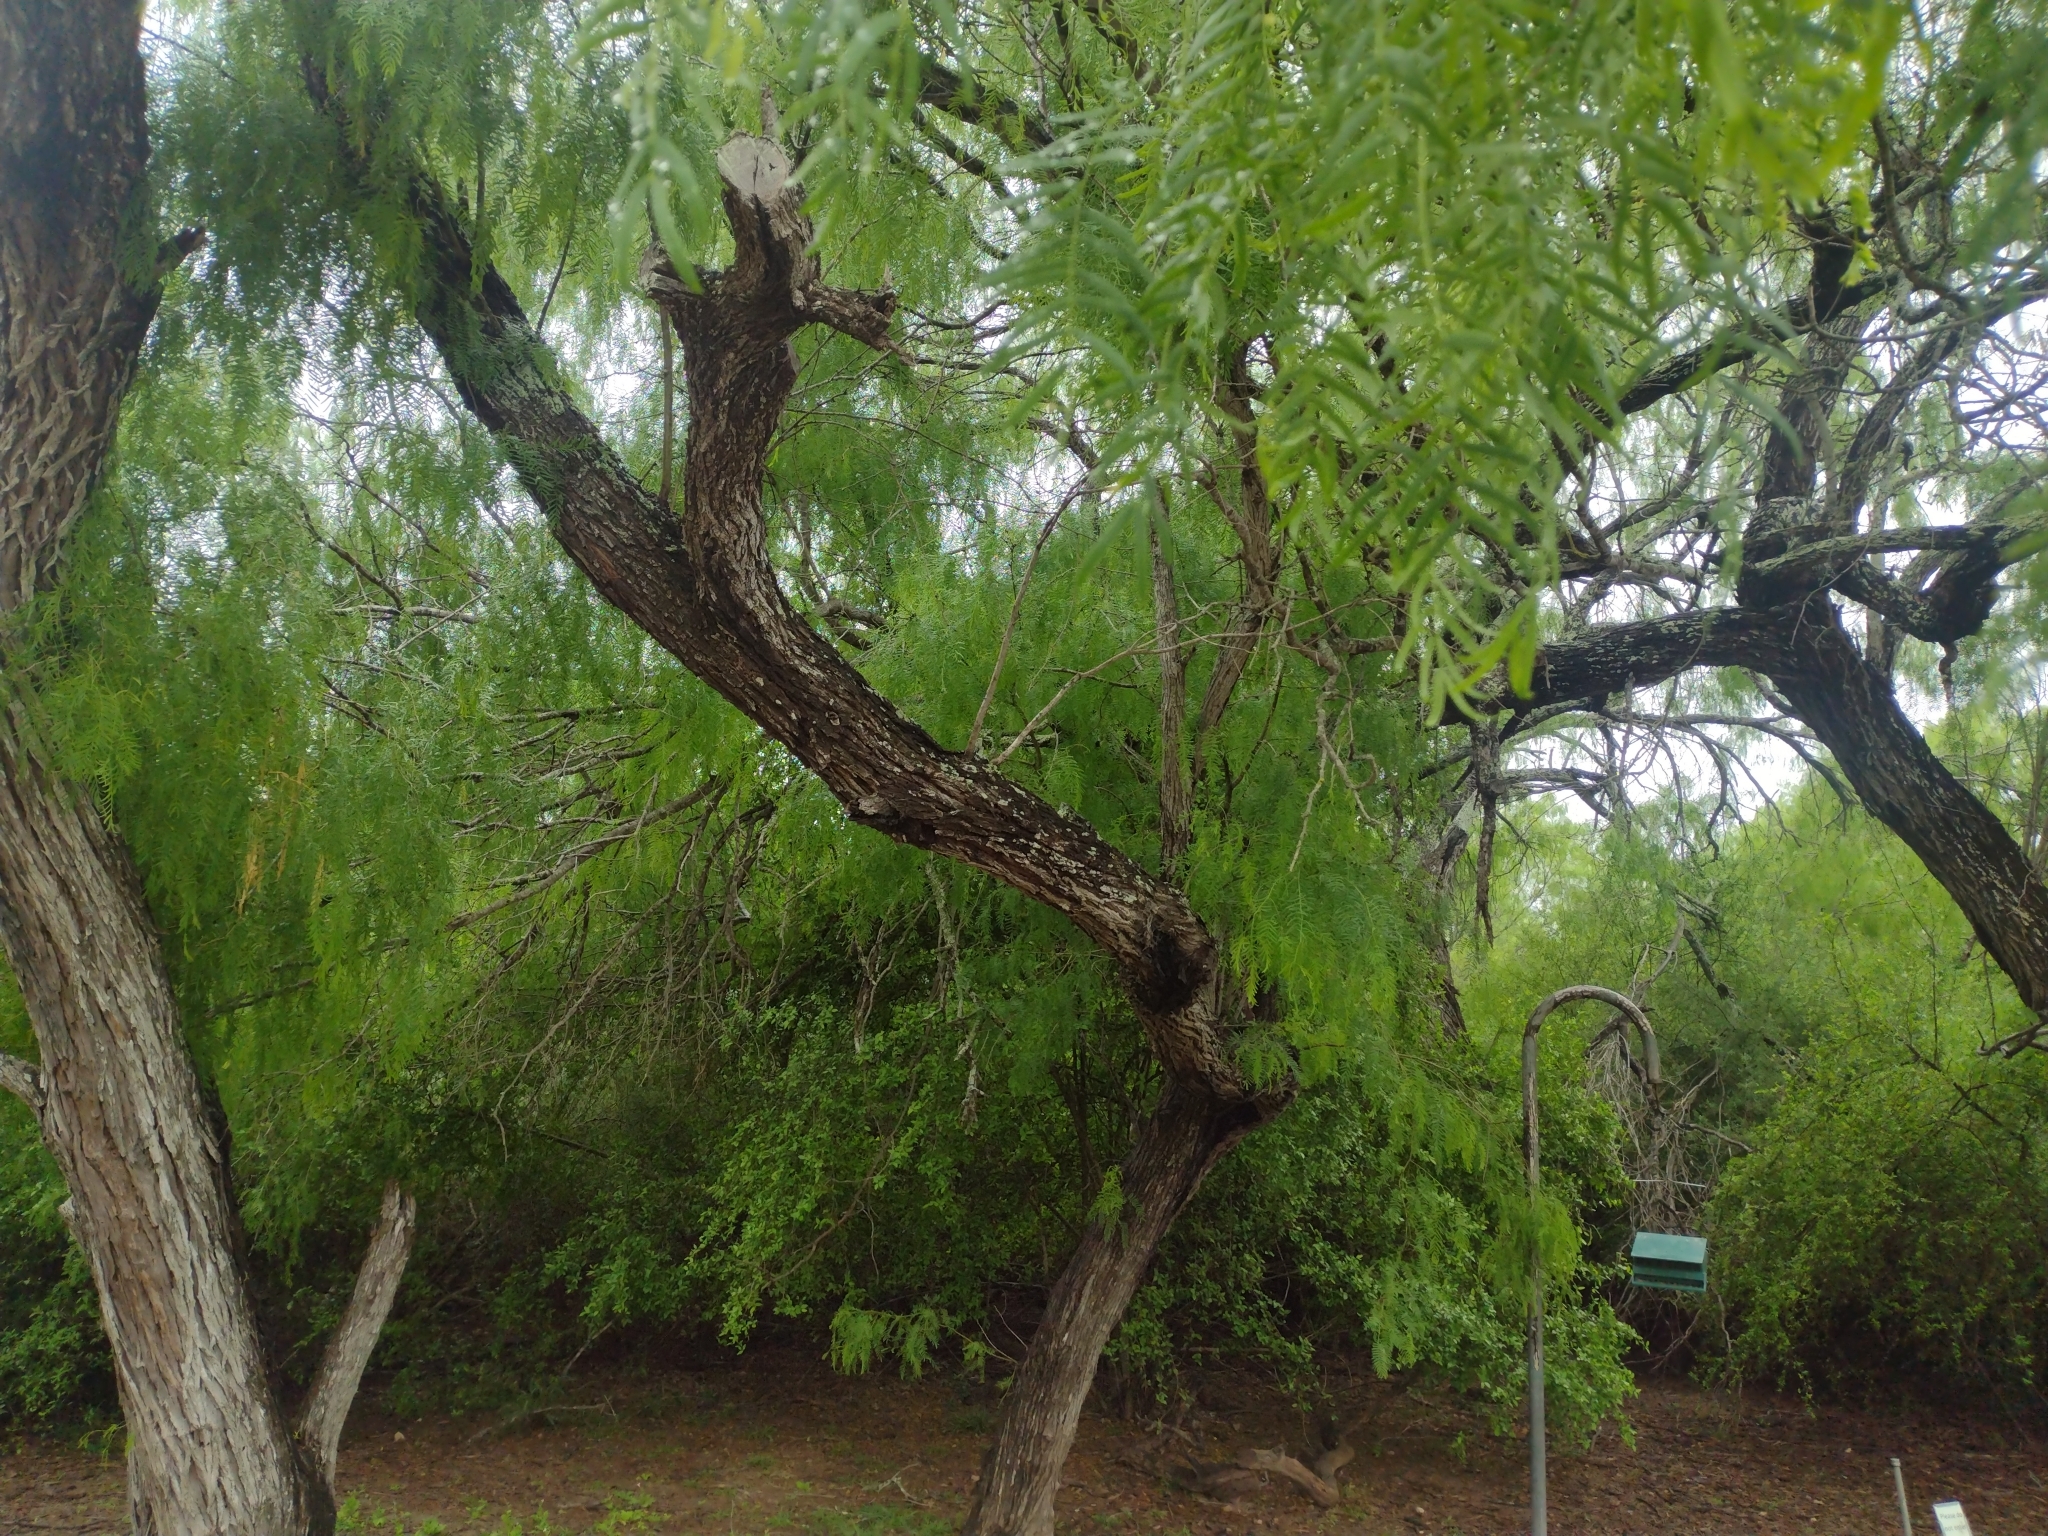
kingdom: Plantae
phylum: Tracheophyta
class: Magnoliopsida
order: Fabales
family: Fabaceae
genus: Prosopis
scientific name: Prosopis glandulosa
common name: Honey mesquite
